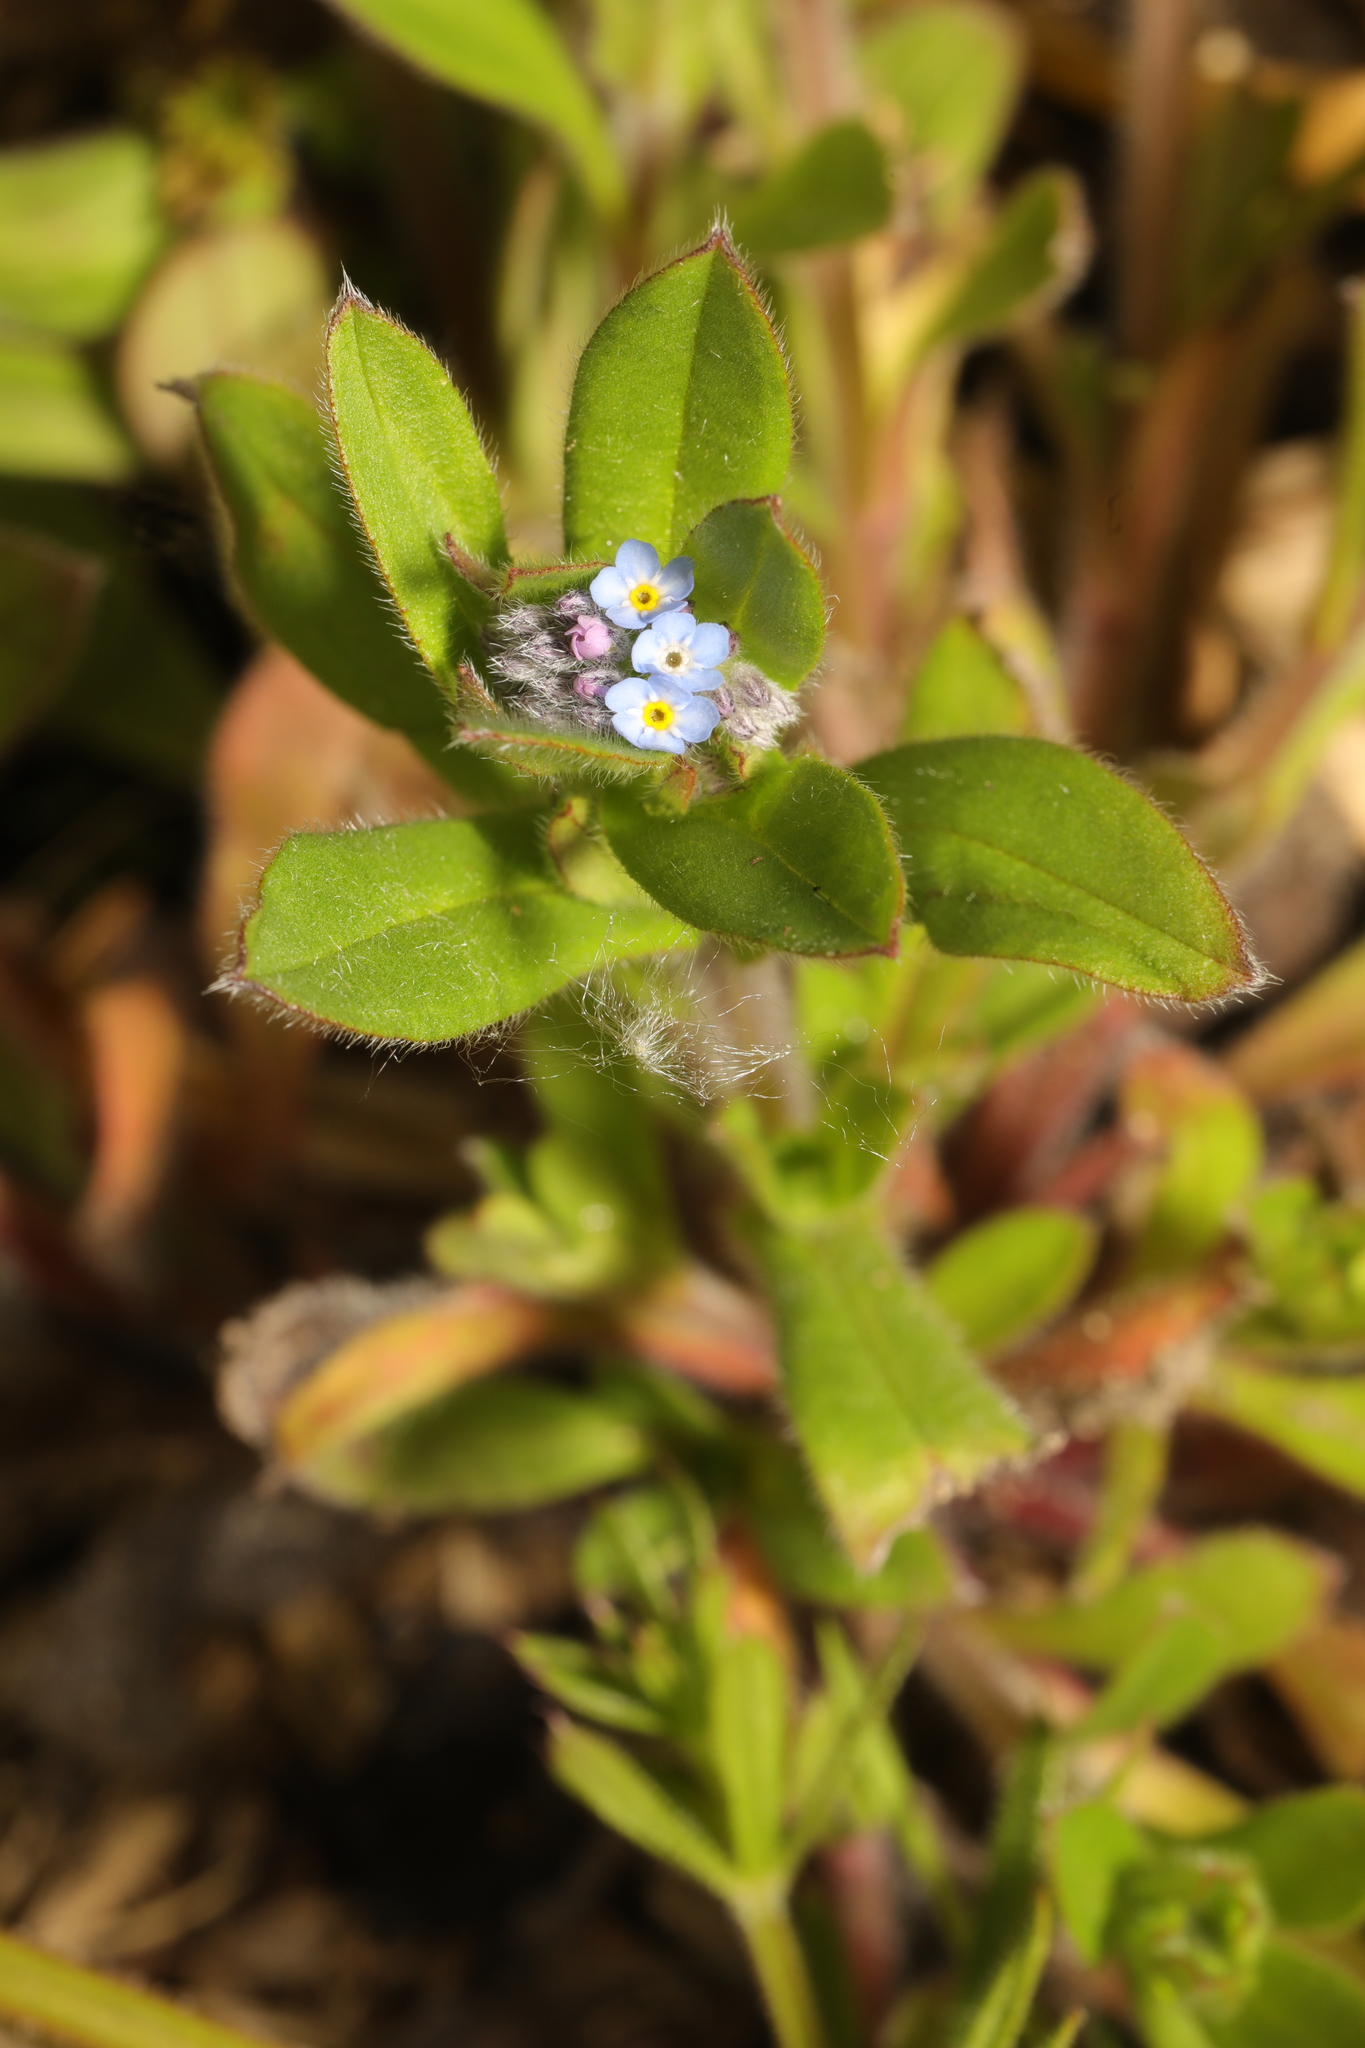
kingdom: Plantae
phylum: Tracheophyta
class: Magnoliopsida
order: Boraginales
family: Boraginaceae
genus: Myosotis
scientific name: Myosotis arvensis
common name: Field forget-me-not
